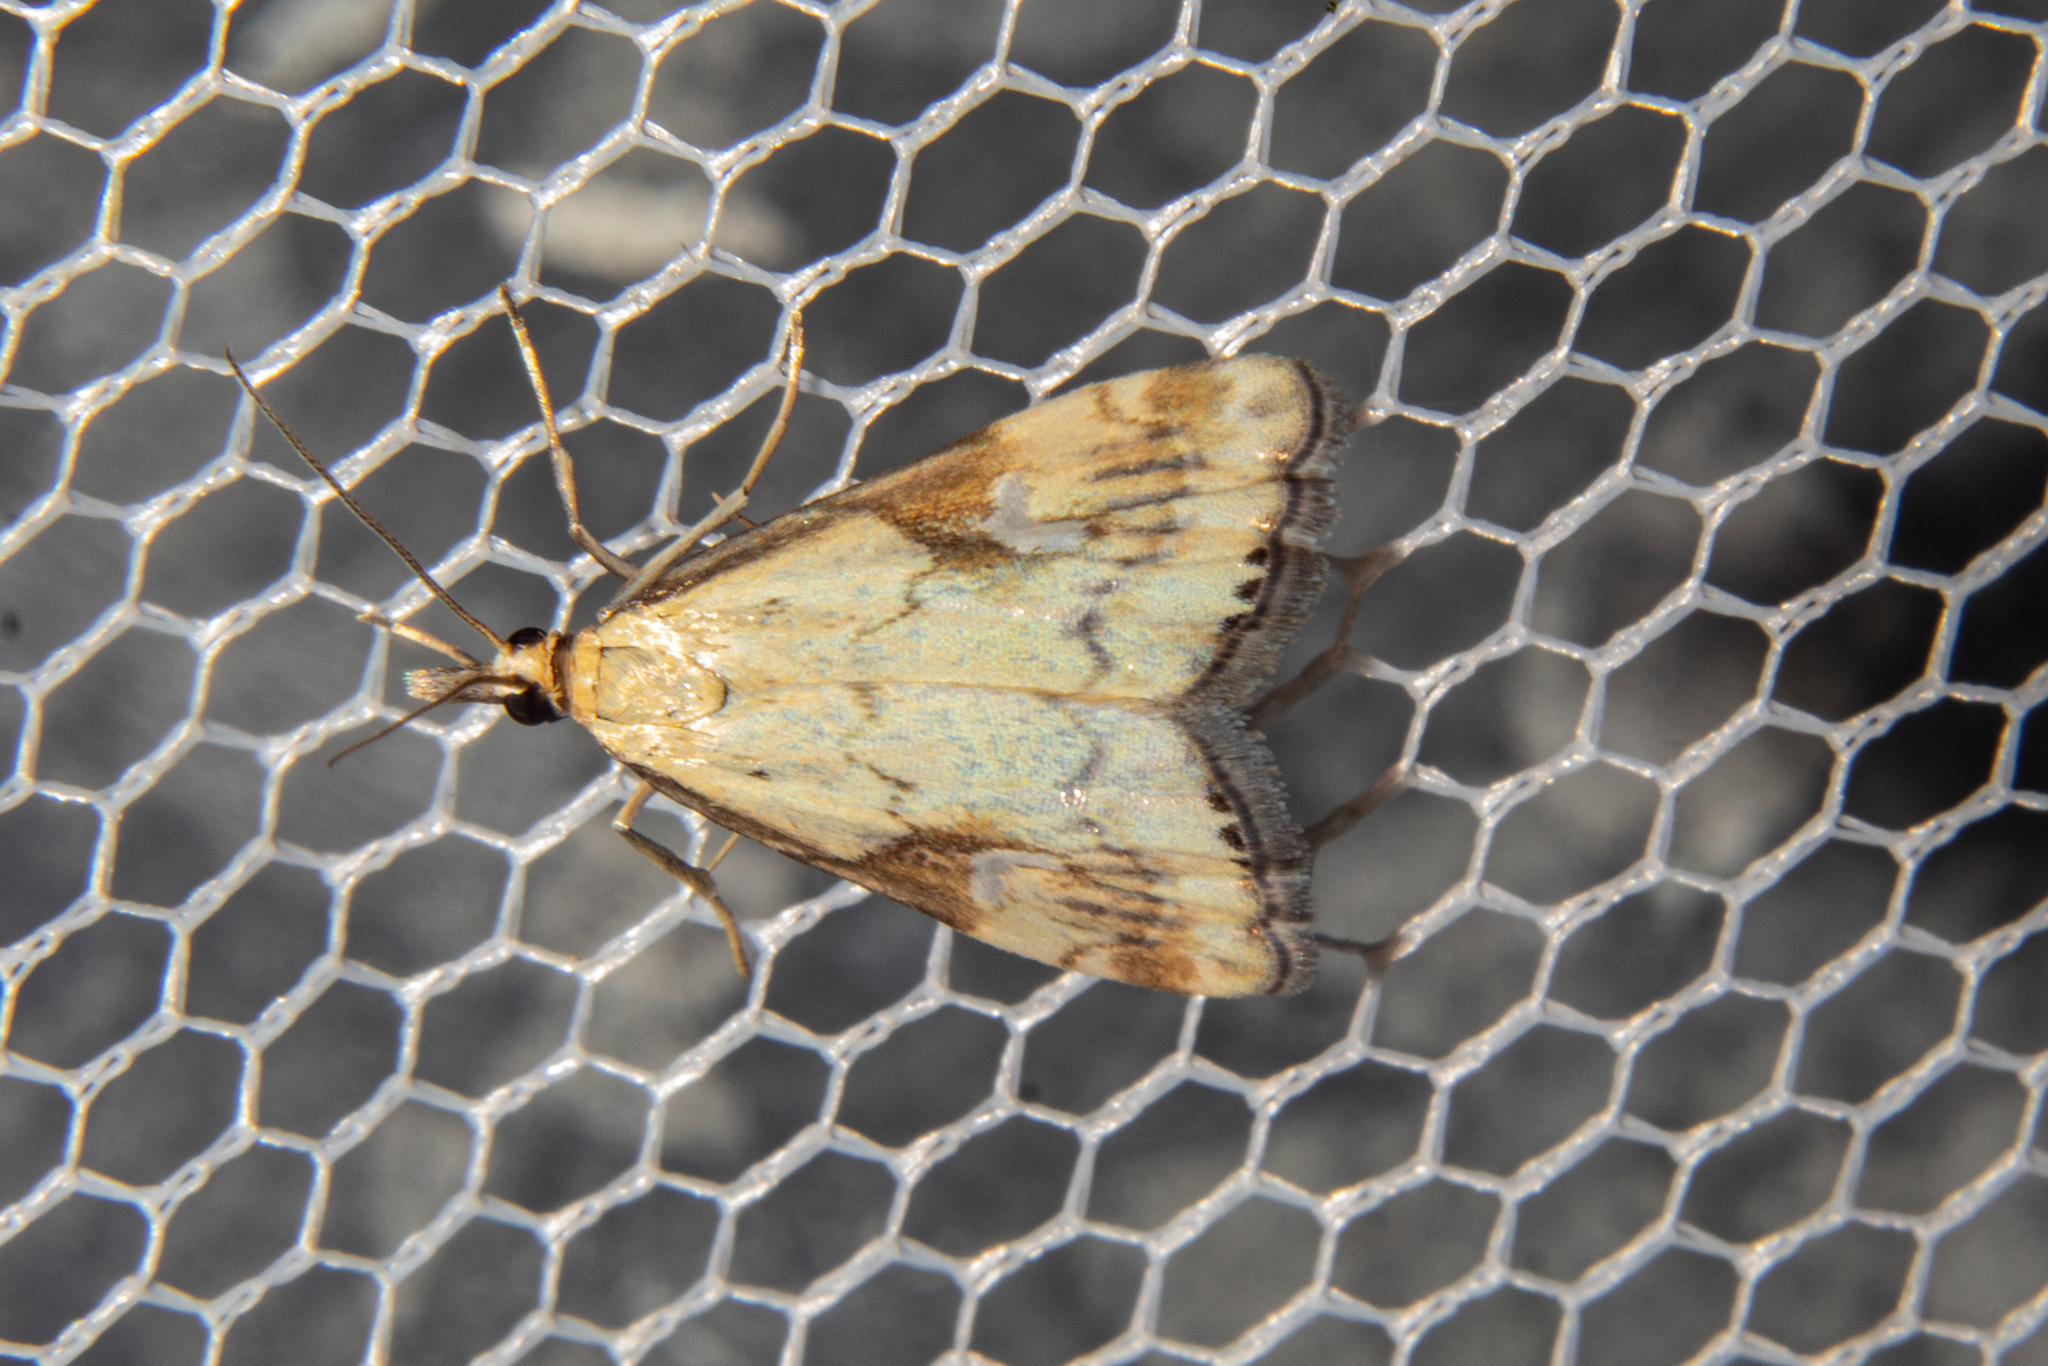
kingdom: Animalia
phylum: Arthropoda
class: Insecta
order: Lepidoptera
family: Crambidae
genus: Glaucocharis
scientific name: Glaucocharis lepidella
